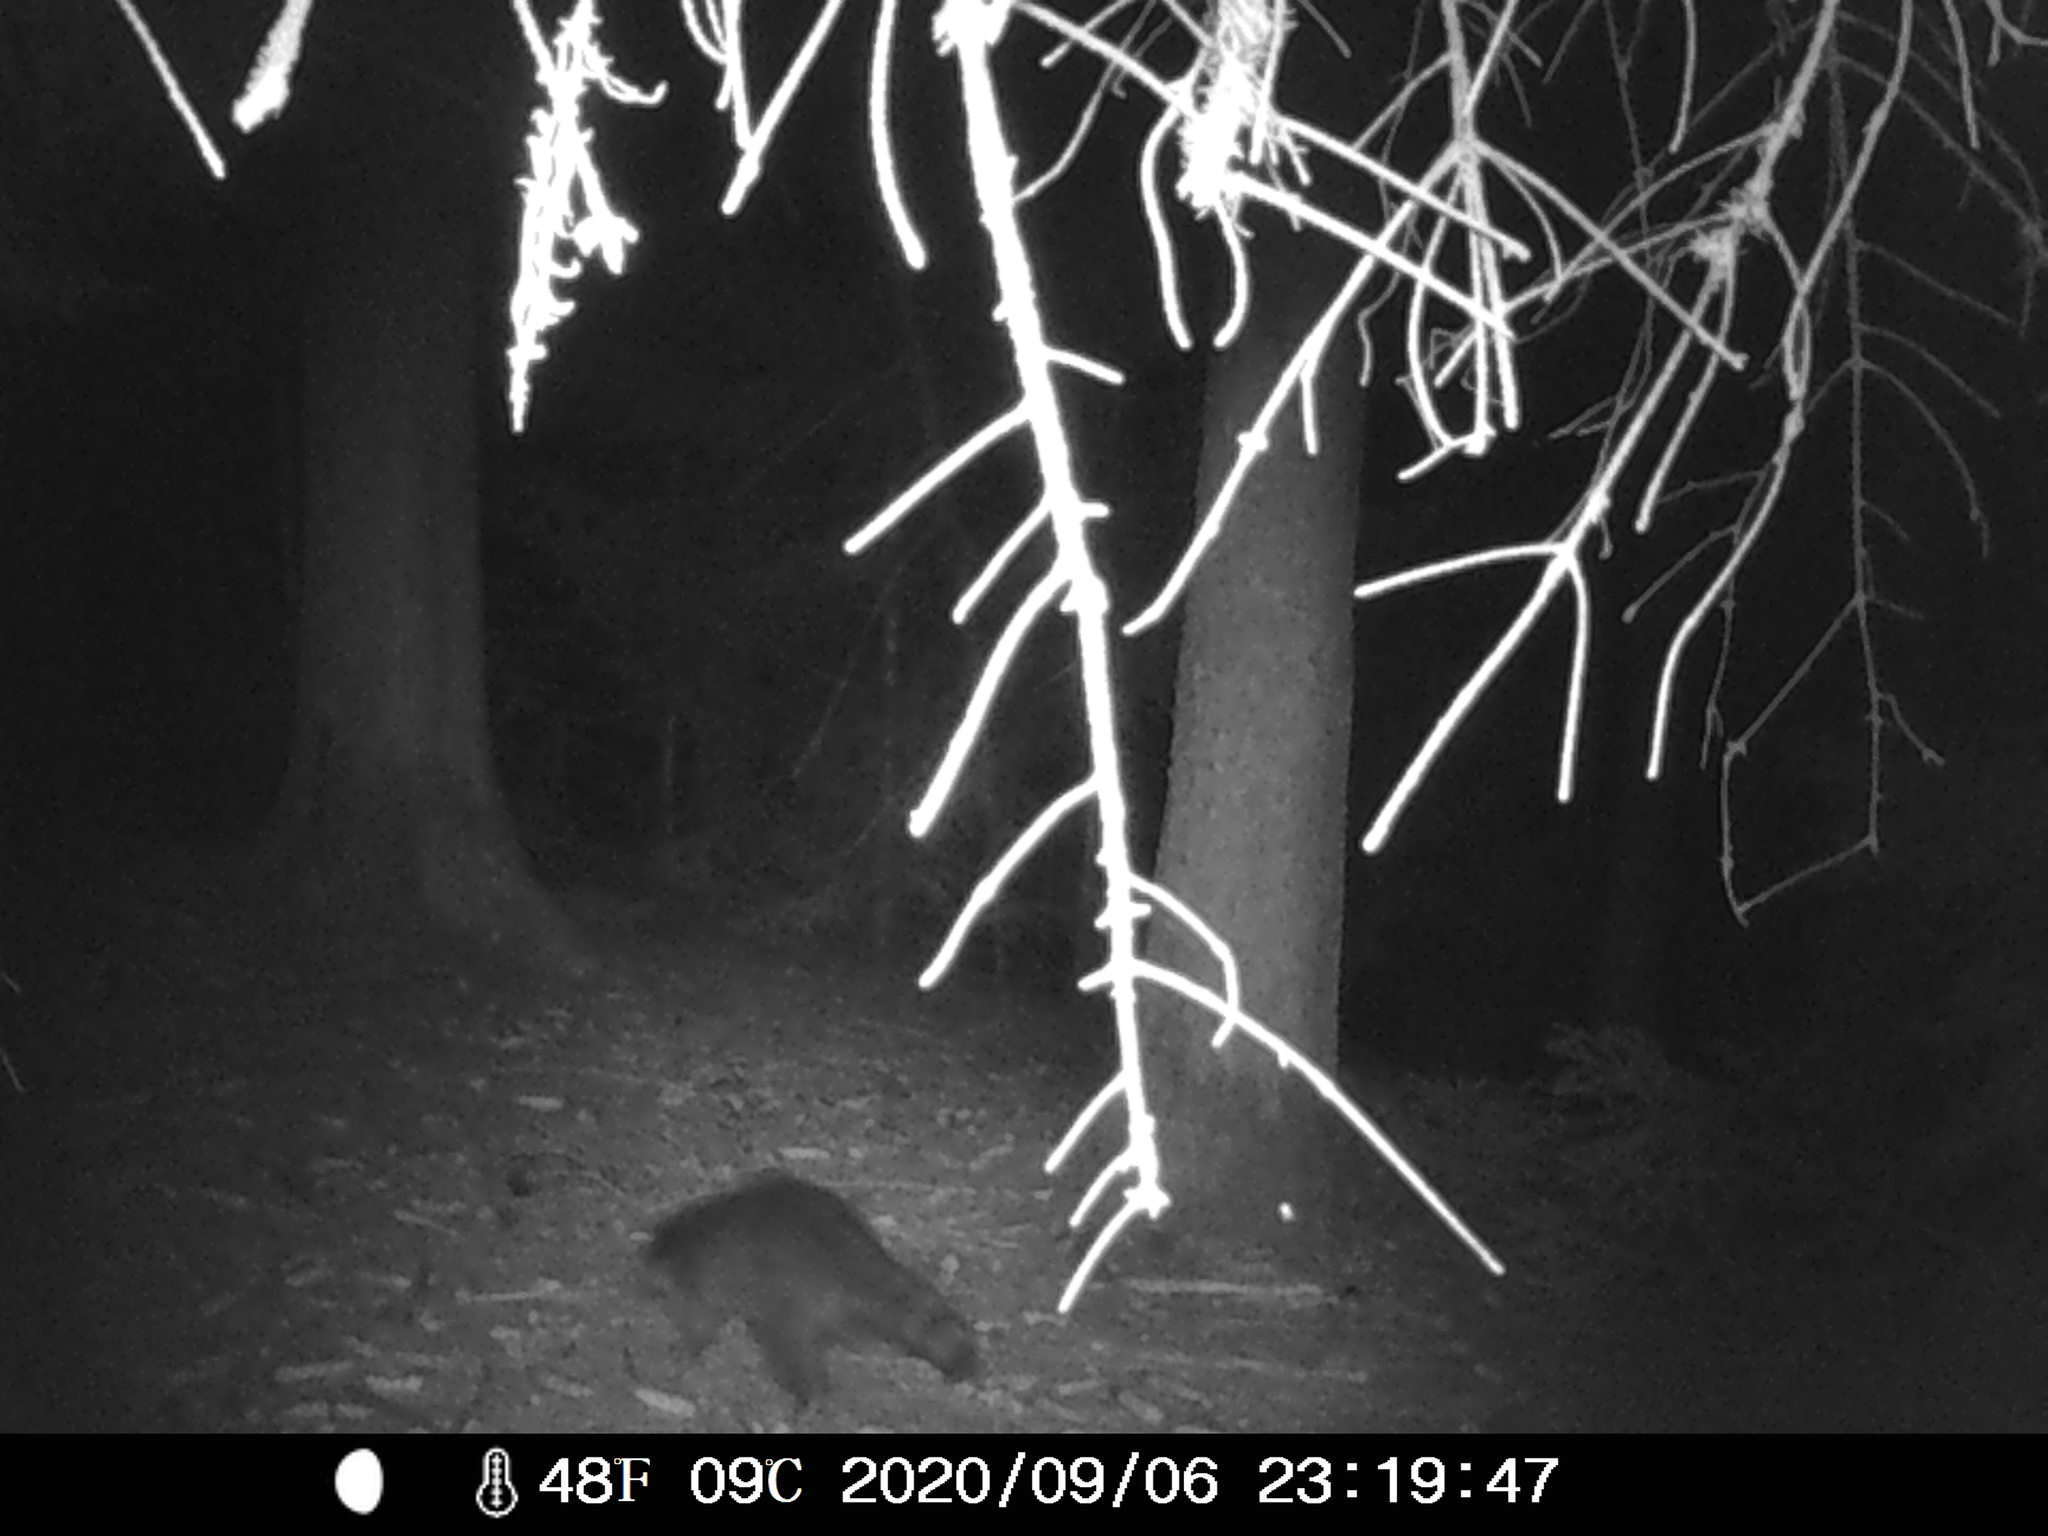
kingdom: Animalia
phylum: Chordata
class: Mammalia
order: Carnivora
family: Procyonidae
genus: Procyon
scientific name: Procyon lotor
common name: Raccoon
